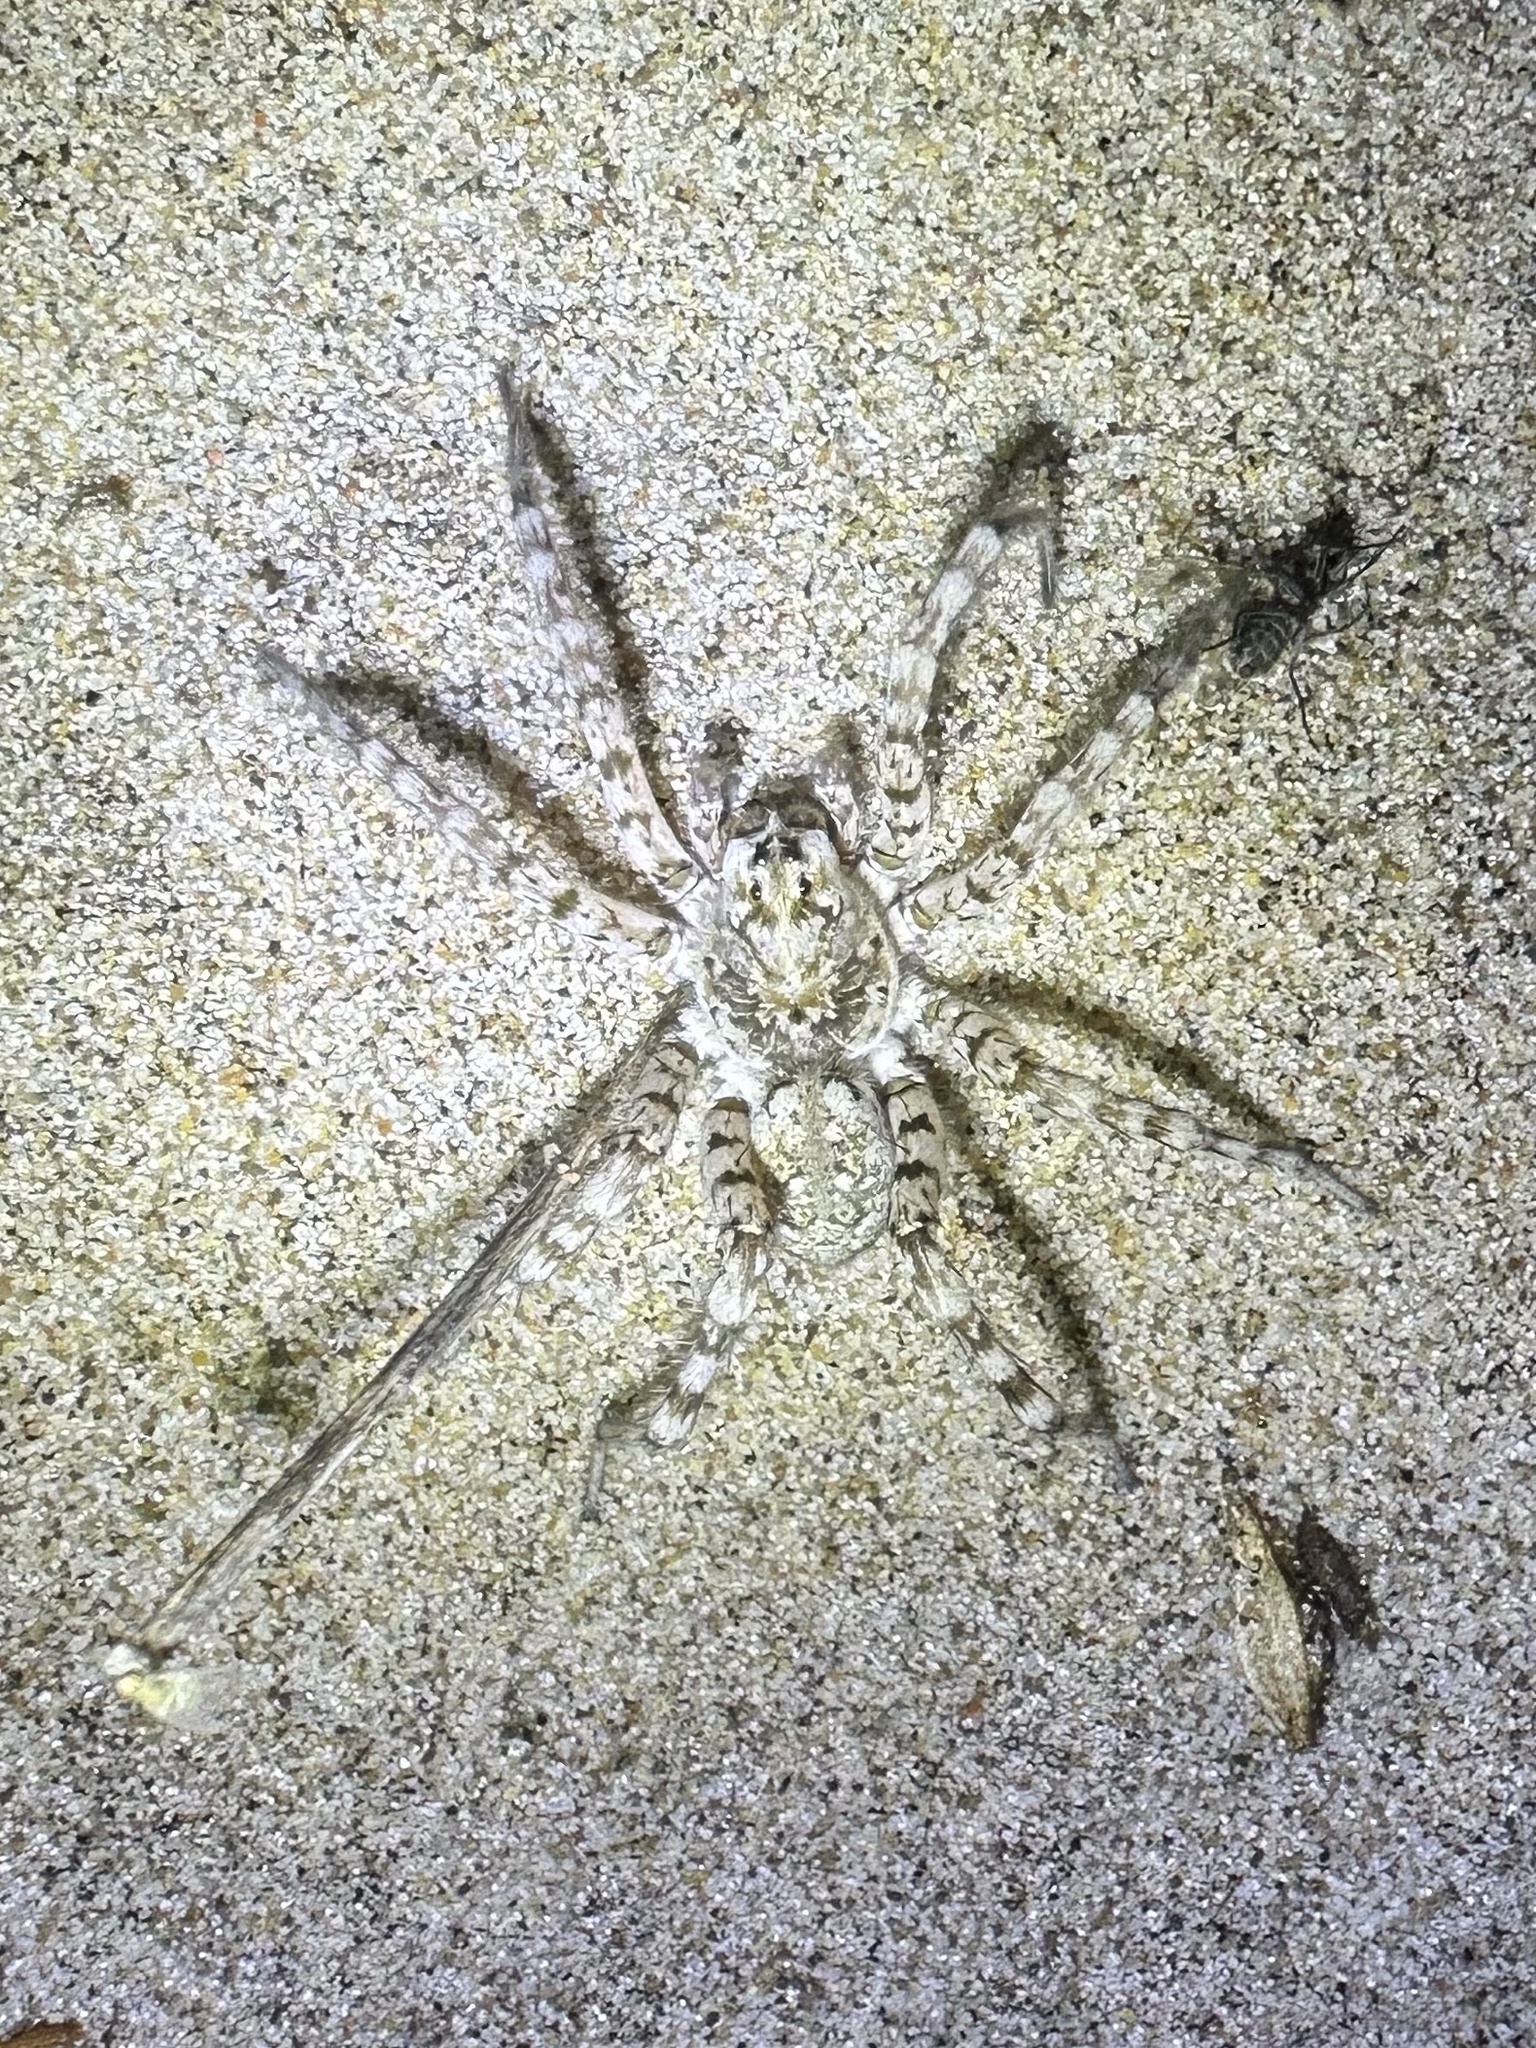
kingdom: Animalia
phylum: Arthropoda
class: Arachnida
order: Araneae
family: Lycosidae
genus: Arctosa
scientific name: Arctosa littoralis
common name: Wolf spiders
